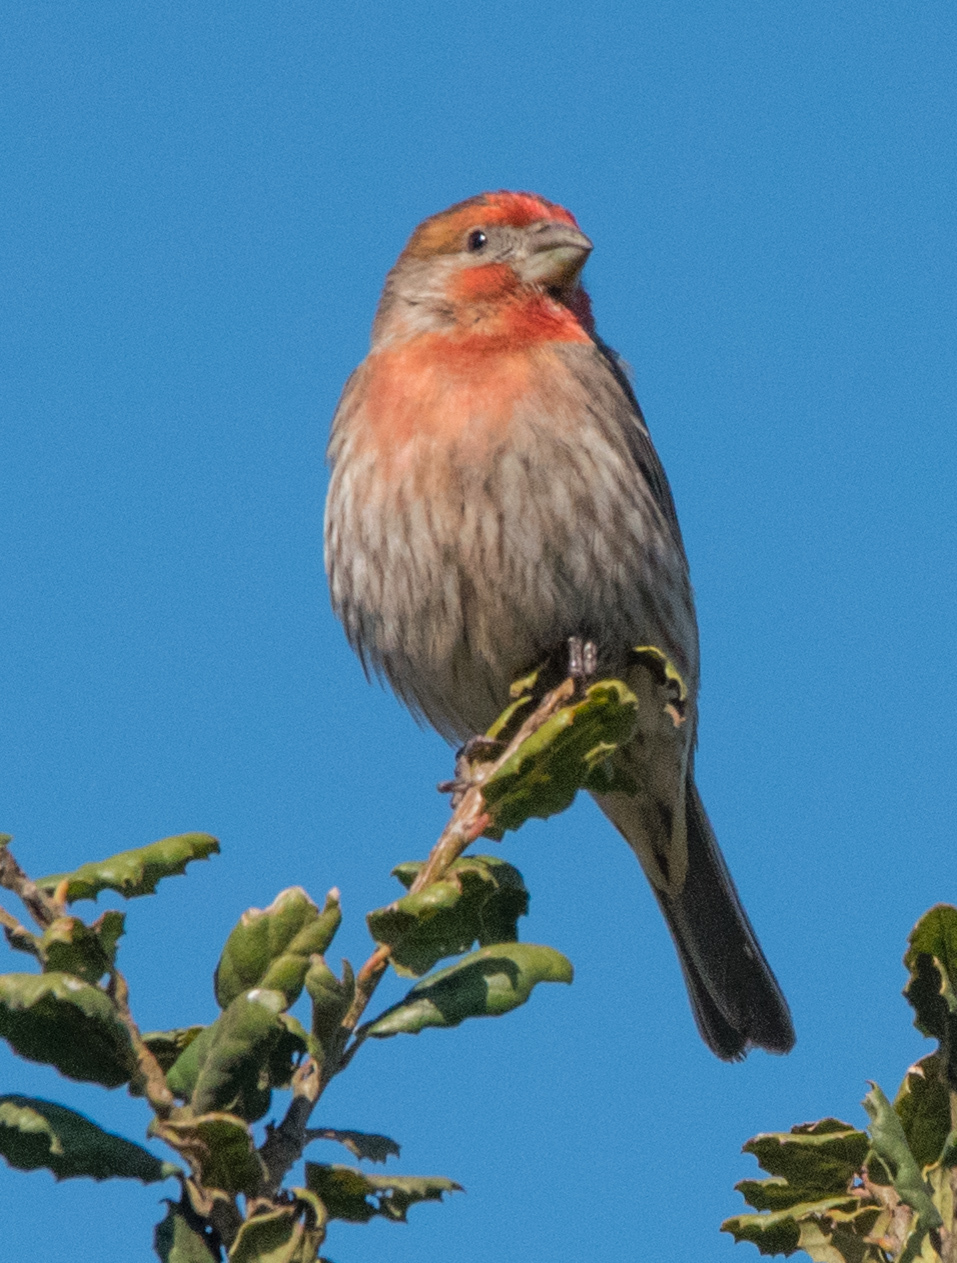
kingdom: Animalia
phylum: Chordata
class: Aves
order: Passeriformes
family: Fringillidae
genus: Haemorhous
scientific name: Haemorhous mexicanus
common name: House finch
